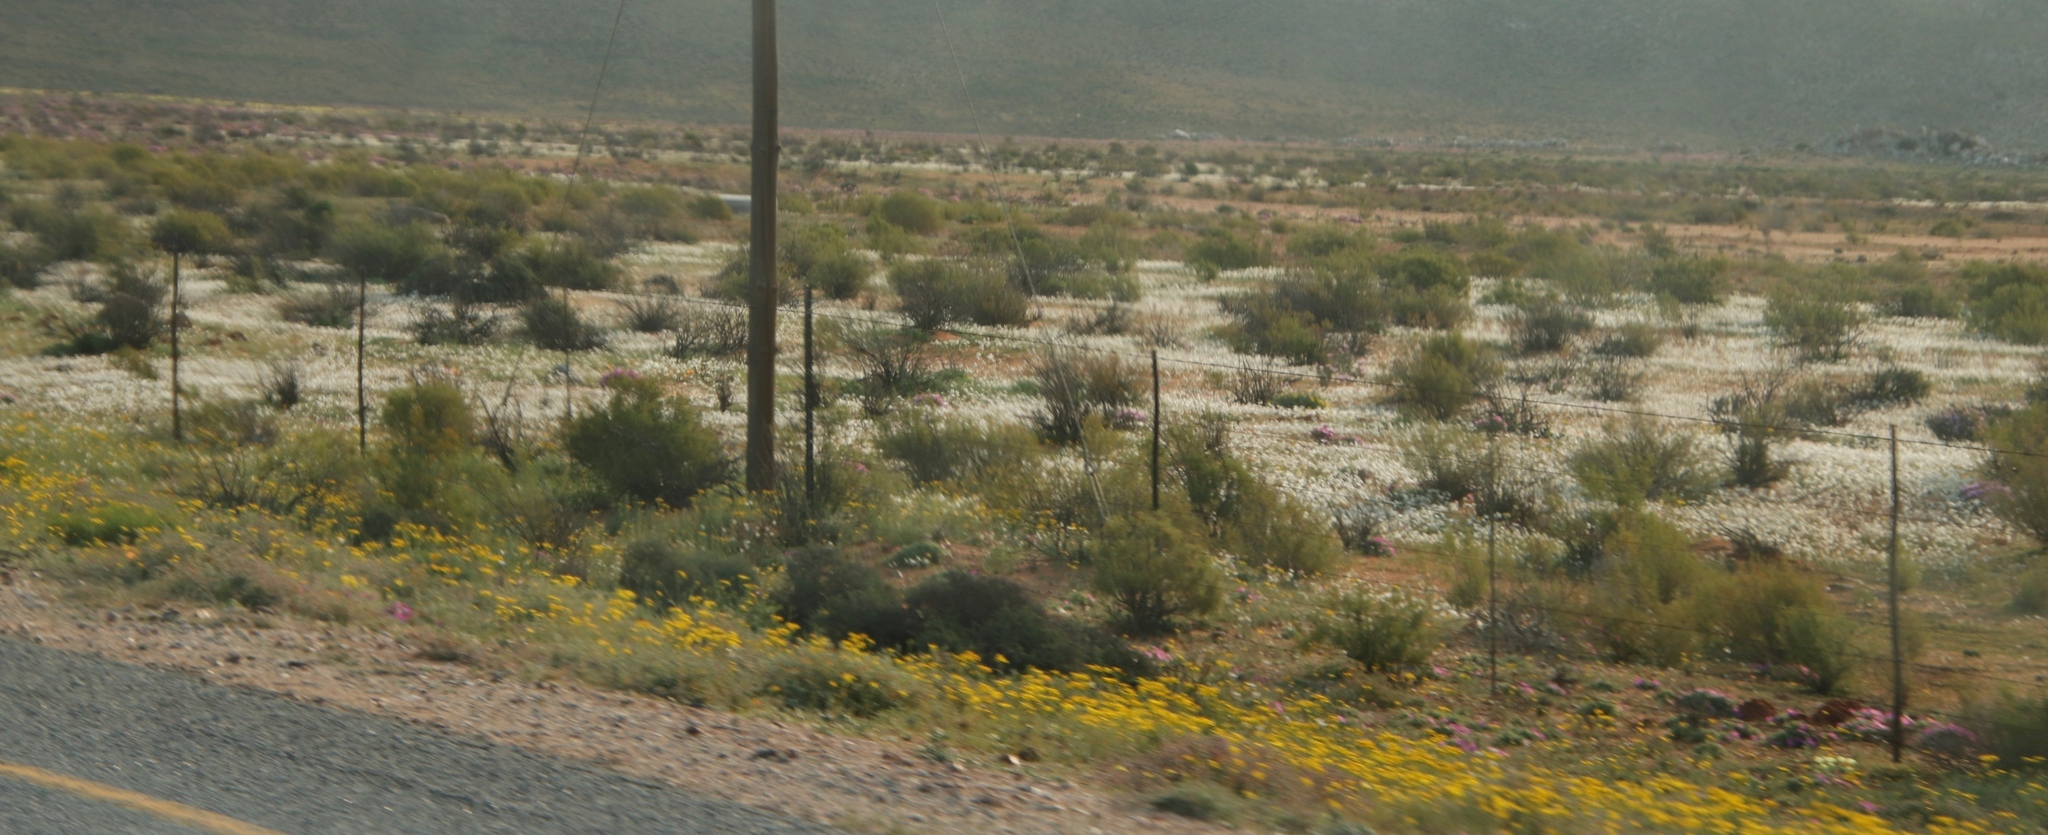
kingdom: Plantae
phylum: Tracheophyta
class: Magnoliopsida
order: Brassicales
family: Brassicaceae
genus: Heliophila
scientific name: Heliophila variabilis
